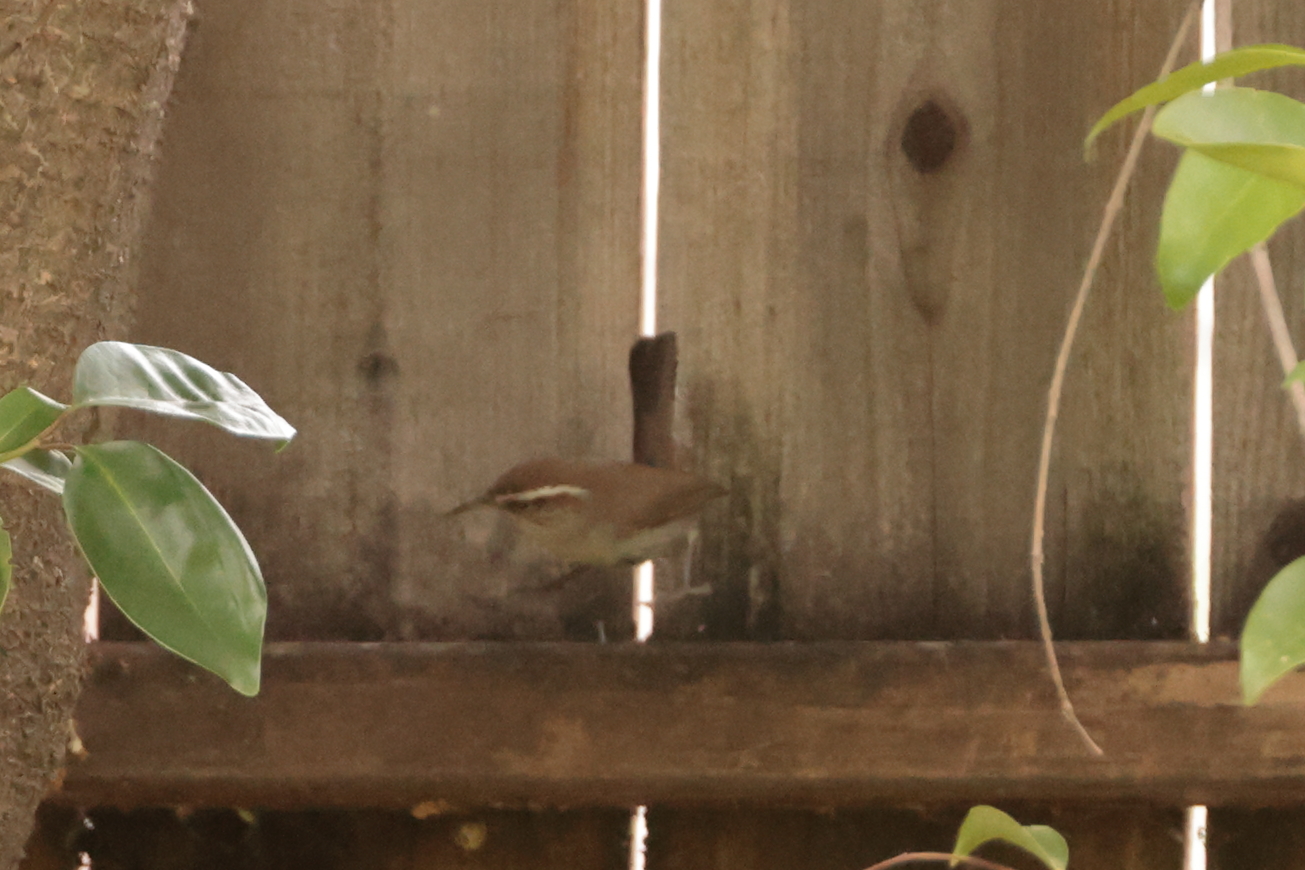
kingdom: Animalia
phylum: Chordata
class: Aves
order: Passeriformes
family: Troglodytidae
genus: Thryomanes
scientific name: Thryomanes bewickii
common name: Bewick's wren
